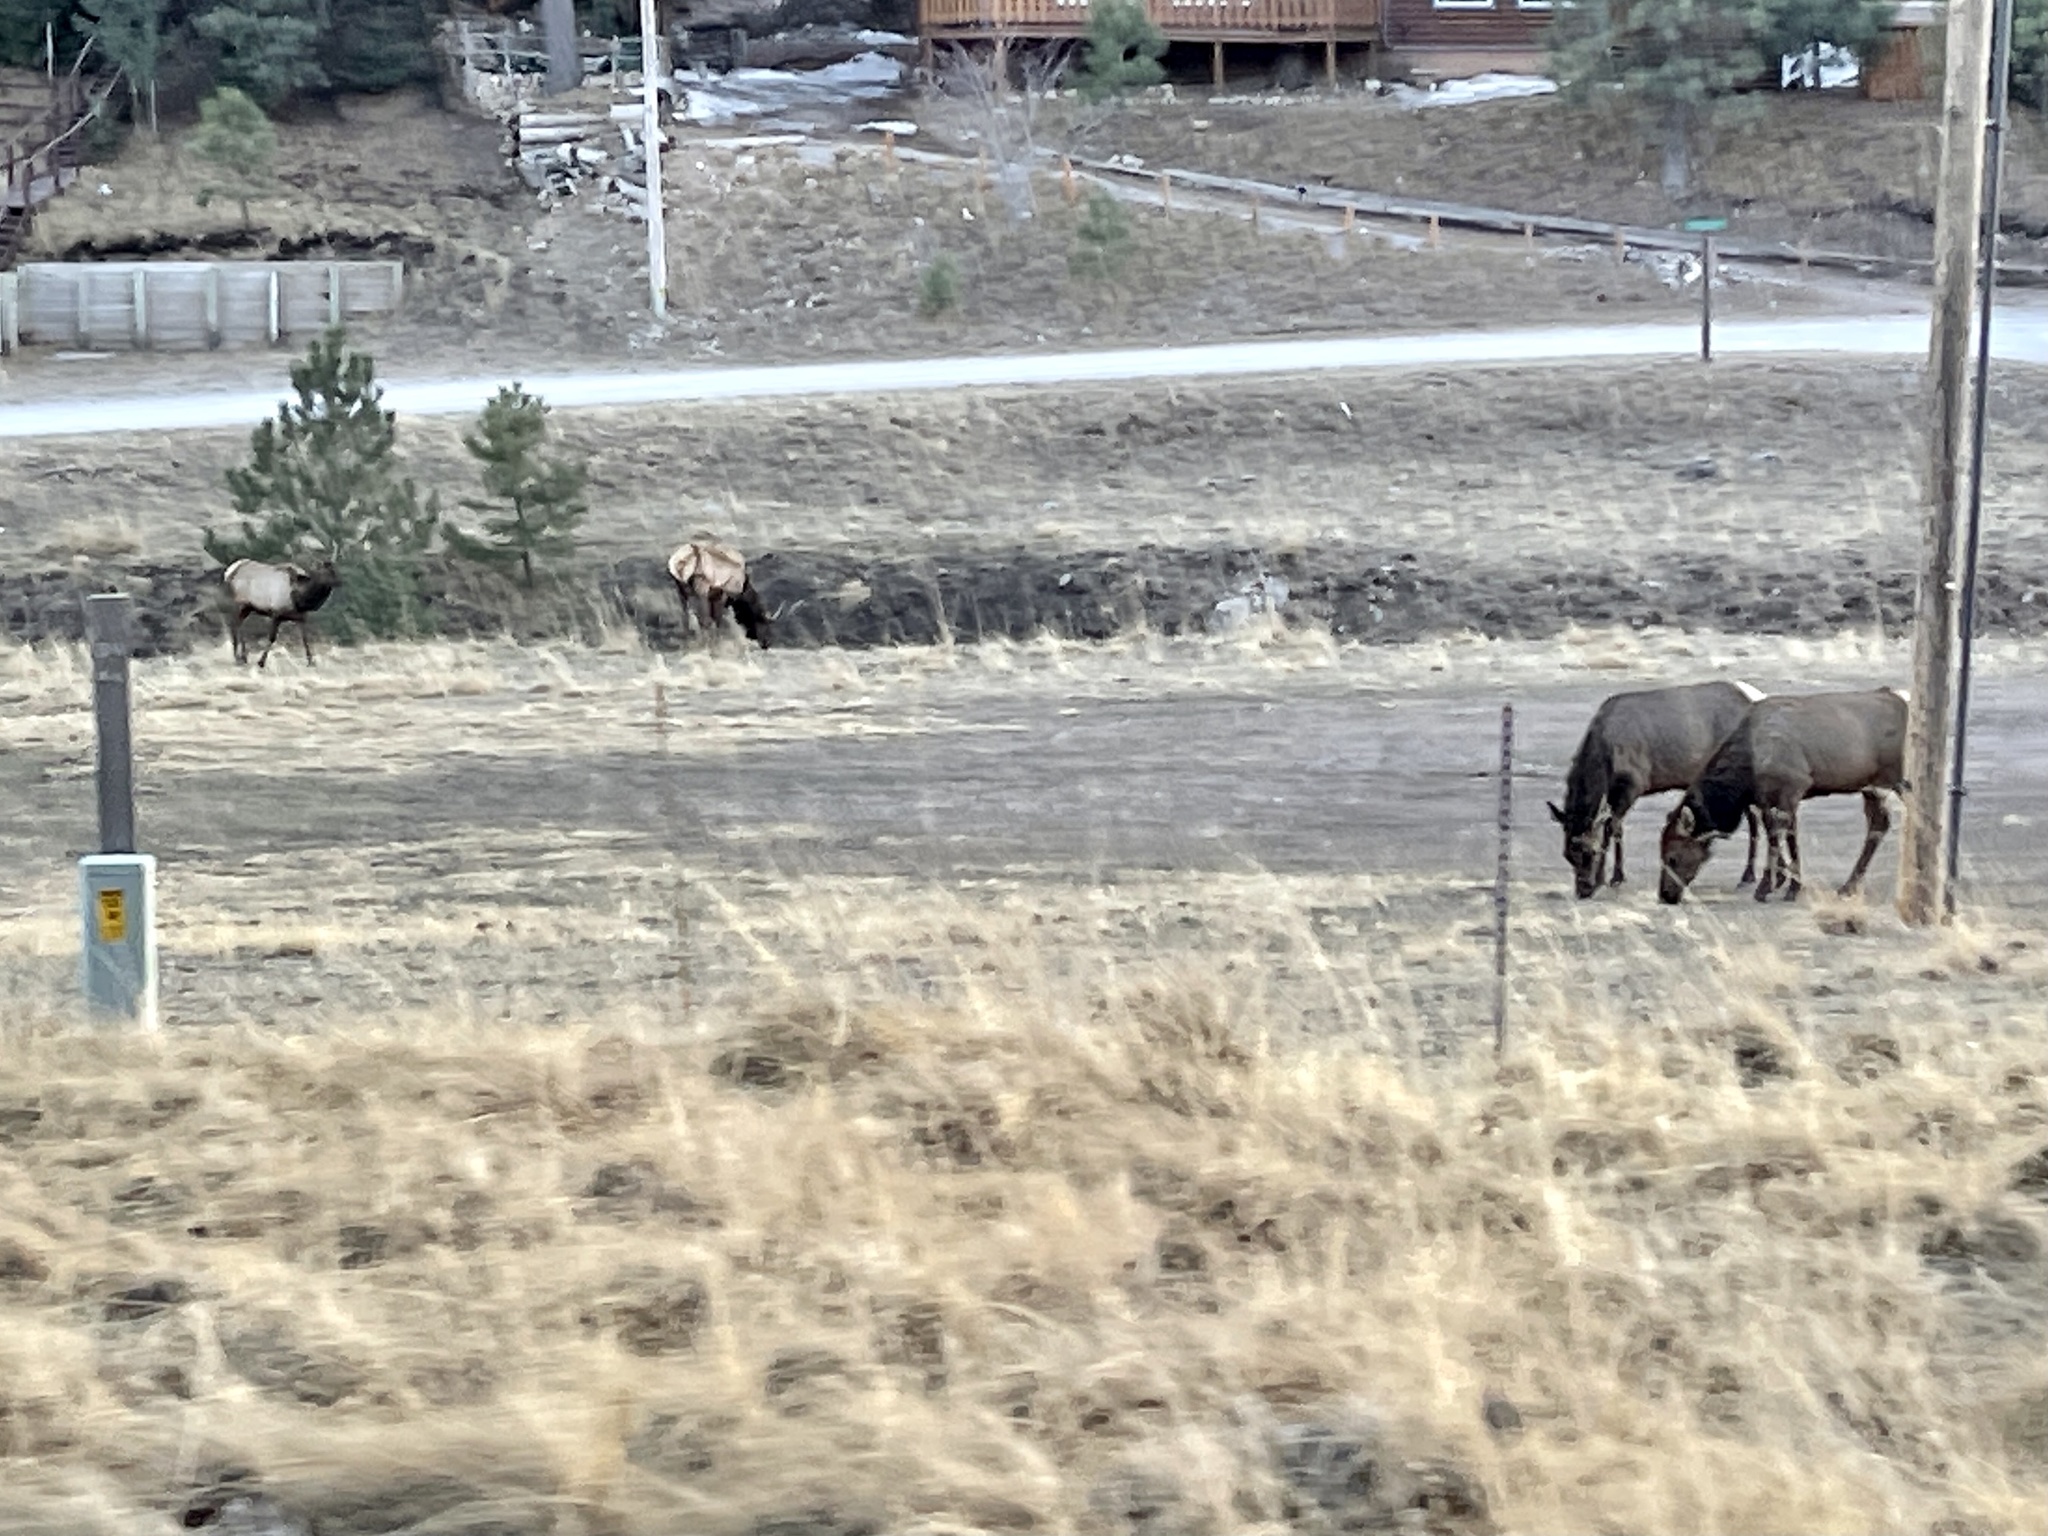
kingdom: Animalia
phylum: Chordata
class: Mammalia
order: Artiodactyla
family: Cervidae
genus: Cervus
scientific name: Cervus elaphus
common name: Red deer
